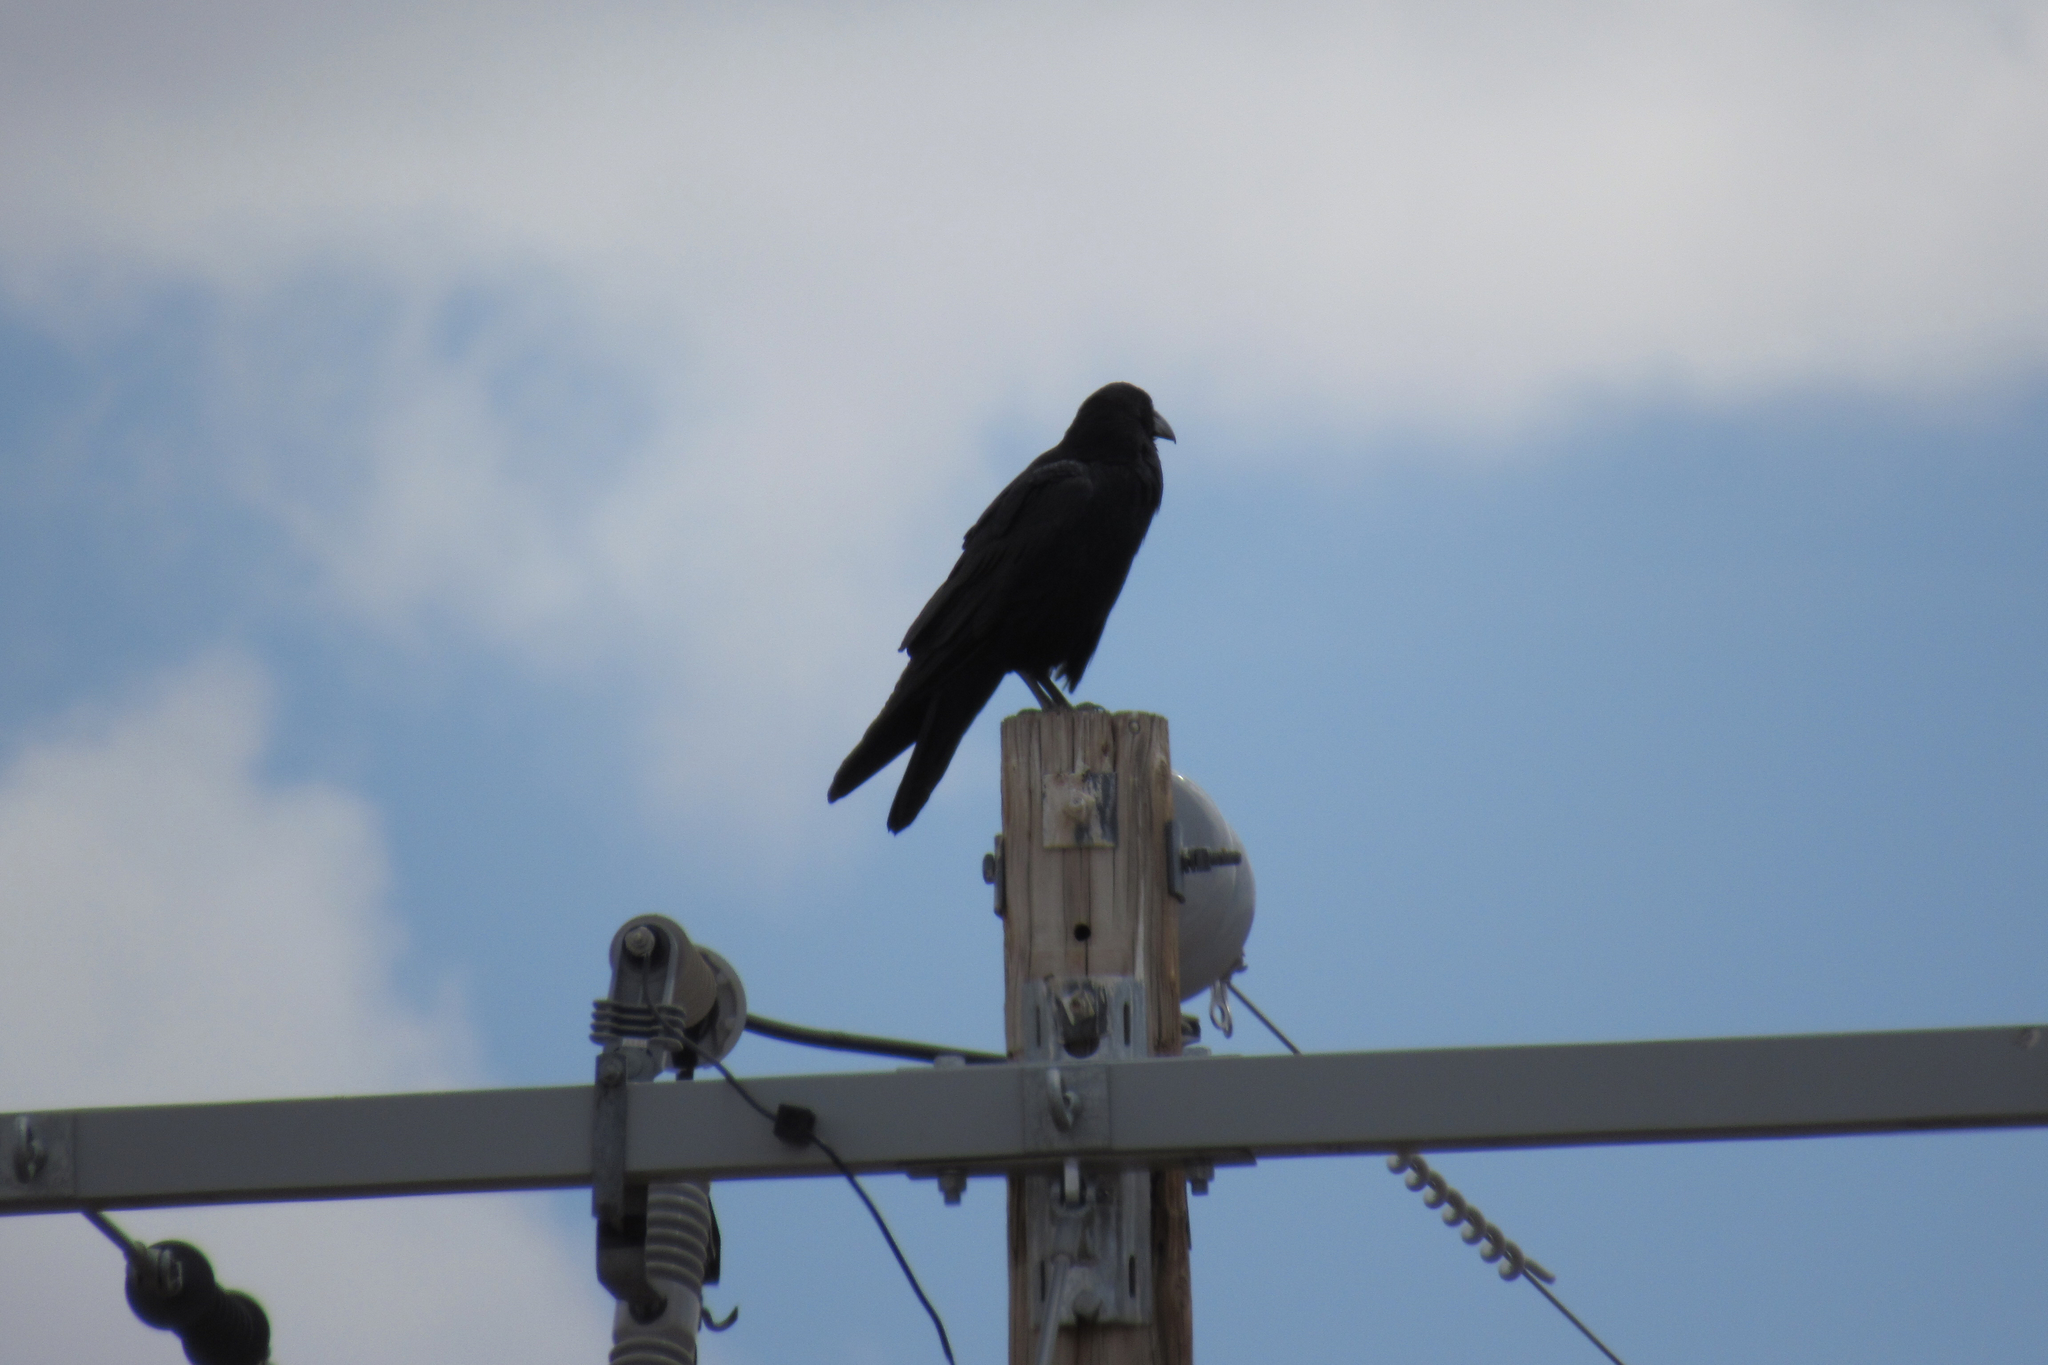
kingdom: Animalia
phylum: Chordata
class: Aves
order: Passeriformes
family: Corvidae
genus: Corvus
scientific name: Corvus corax
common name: Common raven
